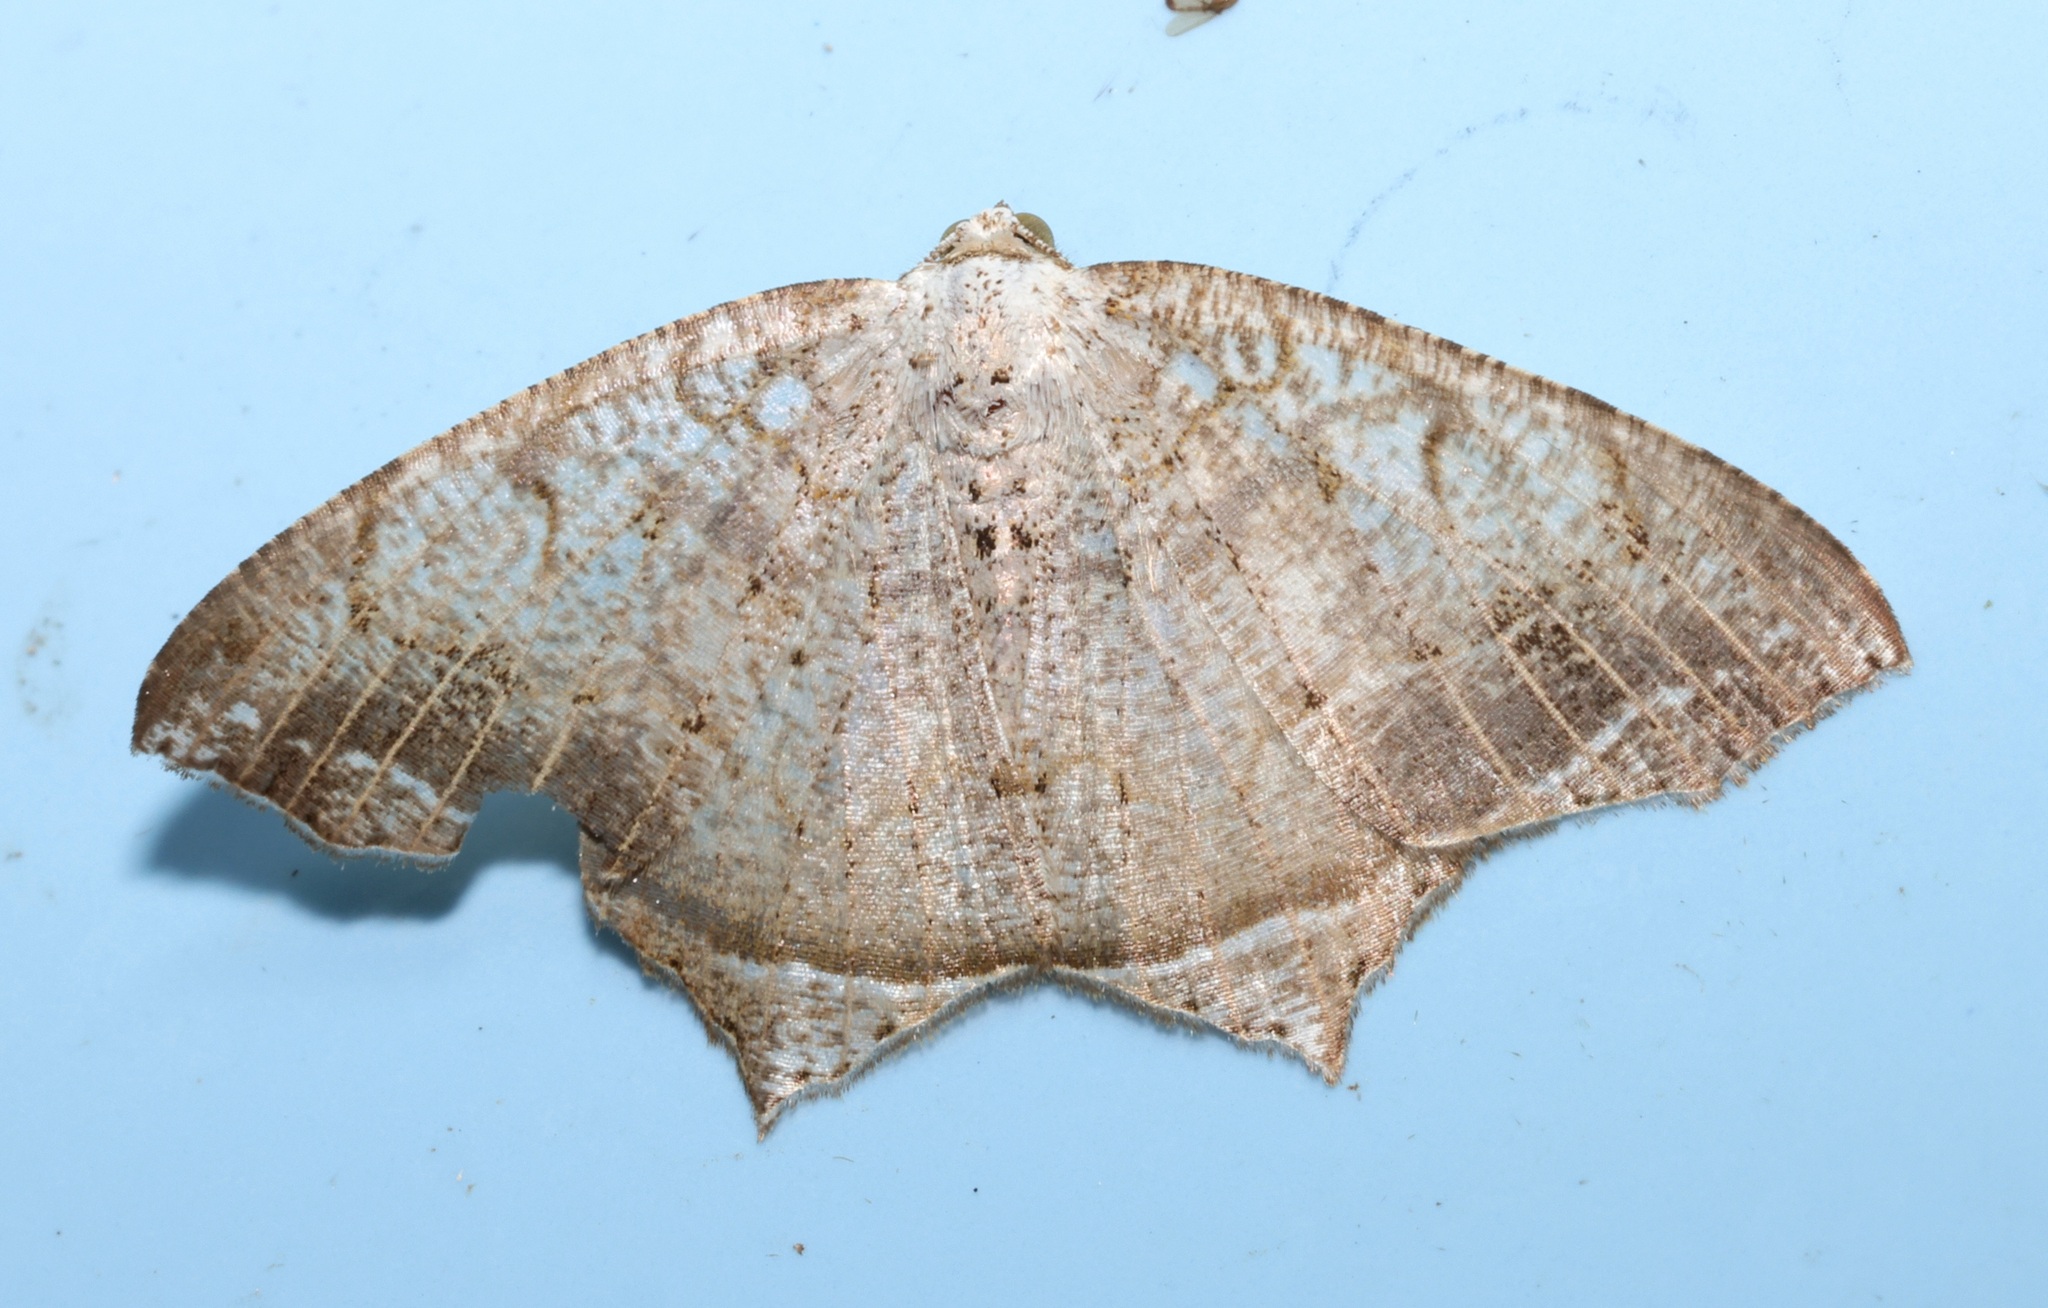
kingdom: Animalia
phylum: Arthropoda
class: Insecta
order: Lepidoptera
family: Geometridae
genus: Oxymacaria
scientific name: Oxymacaria temeraria
